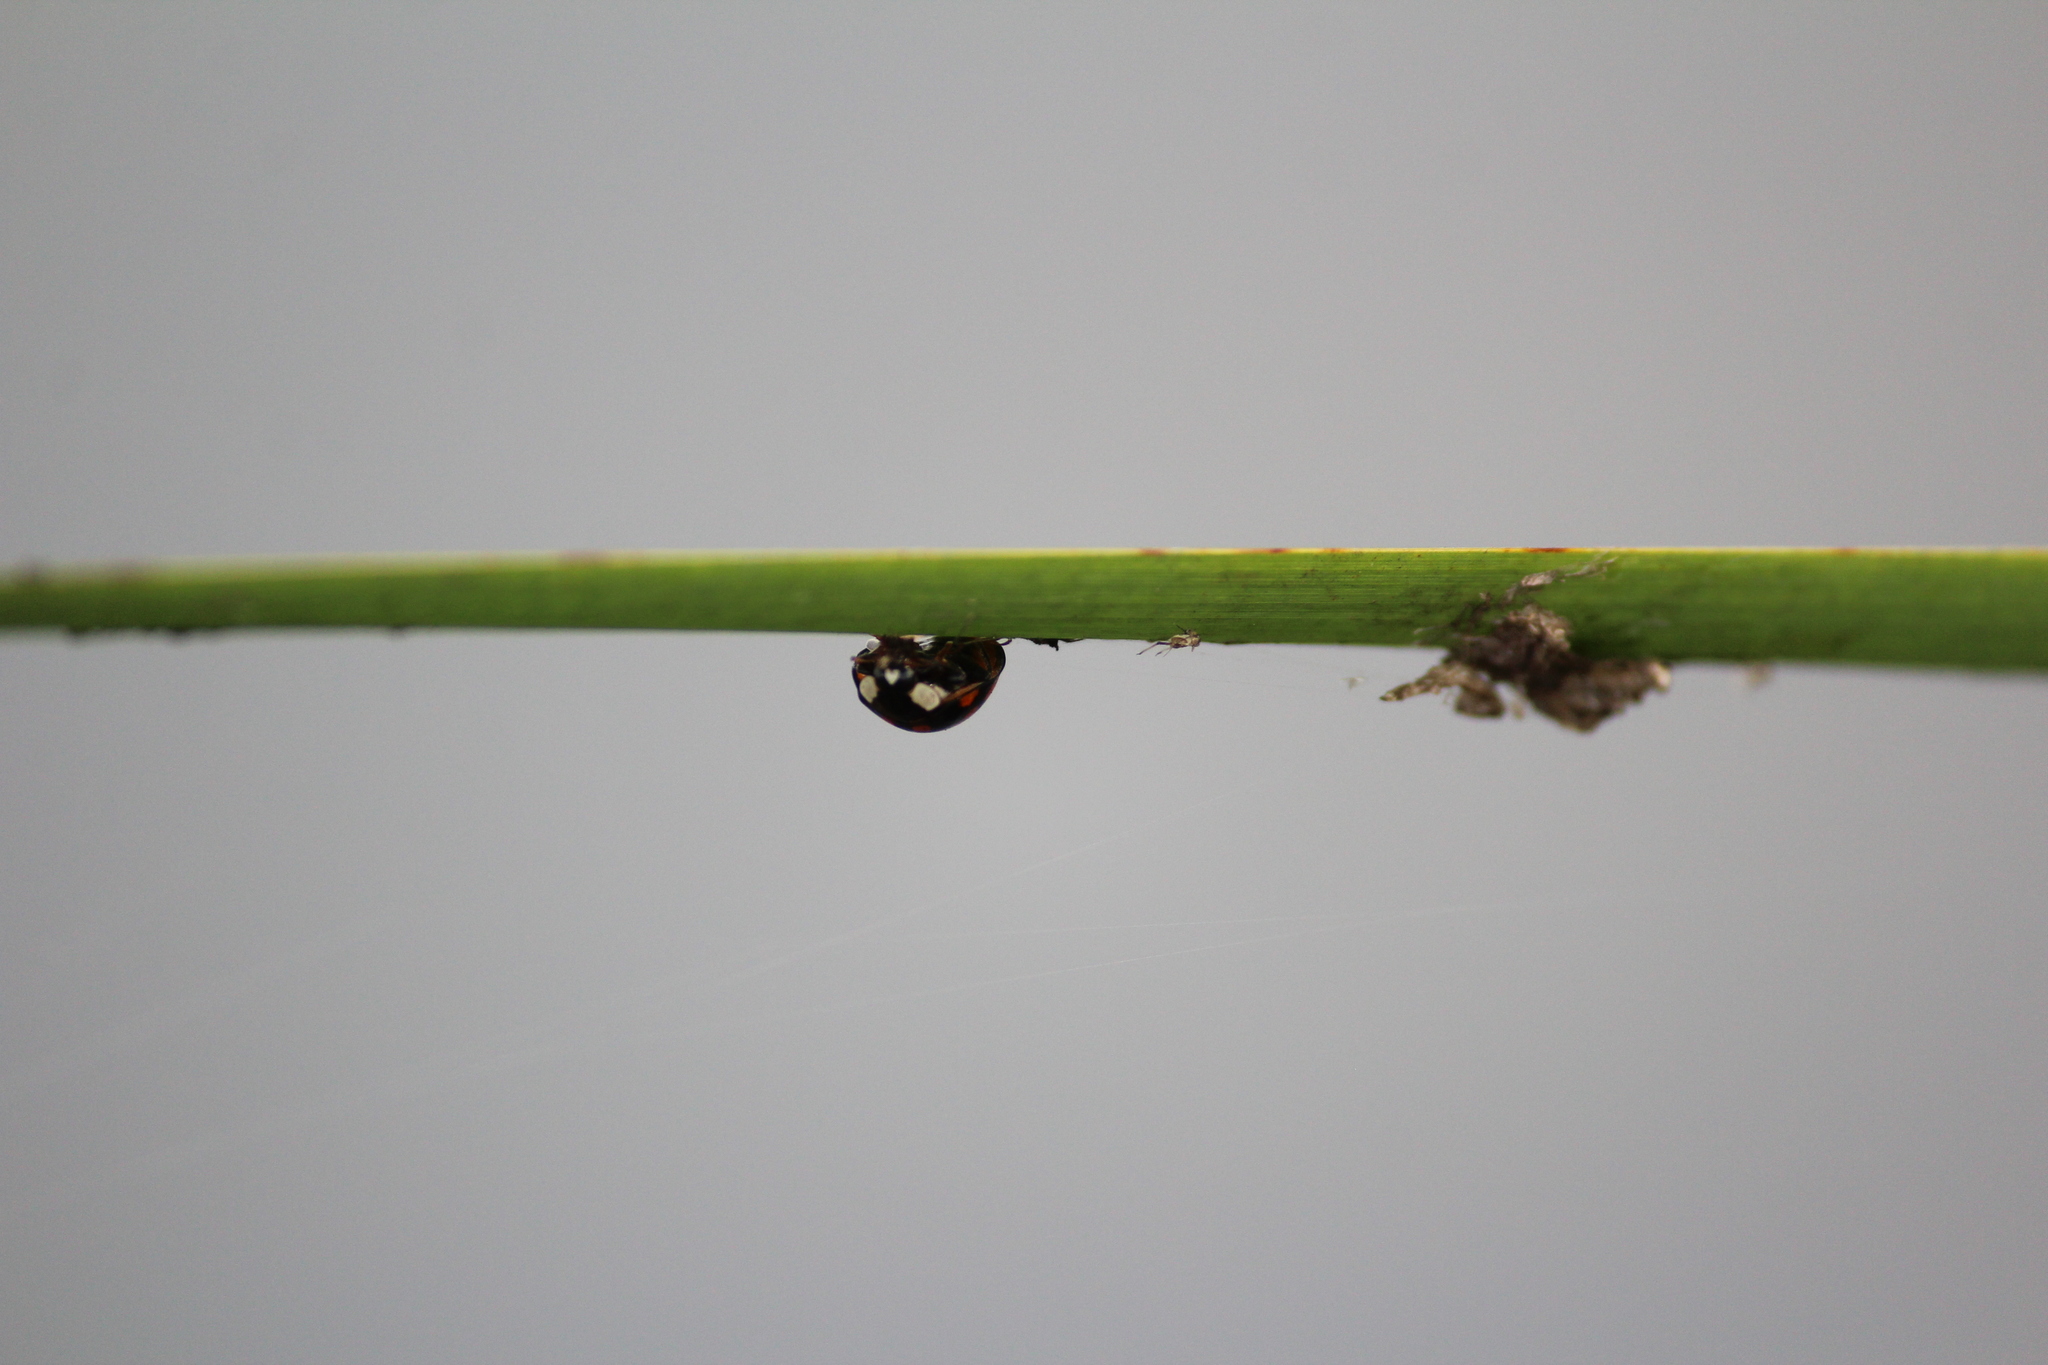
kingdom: Animalia
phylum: Arthropoda
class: Insecta
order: Coleoptera
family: Coccinellidae
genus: Harmonia
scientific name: Harmonia axyridis
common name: Harlequin ladybird
